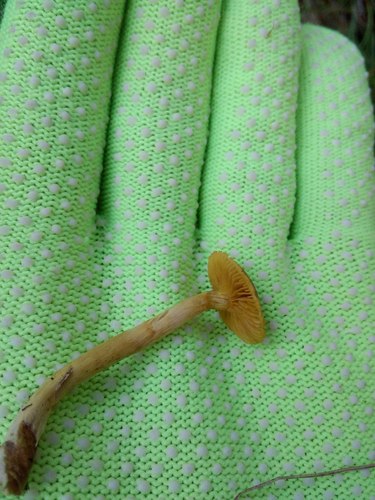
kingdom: Fungi
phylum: Basidiomycota
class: Agaricomycetes
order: Agaricales
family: Cortinariaceae
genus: Cortinarius
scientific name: Cortinarius
